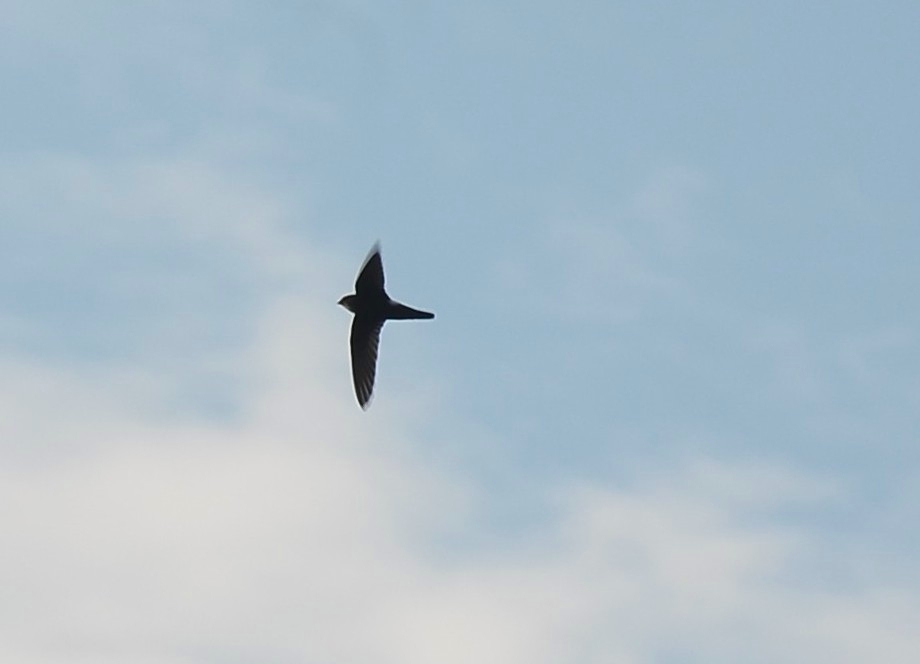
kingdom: Animalia
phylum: Chordata
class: Aves
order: Apodiformes
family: Apodidae
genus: Apus
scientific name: Apus affinis
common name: Little swift
